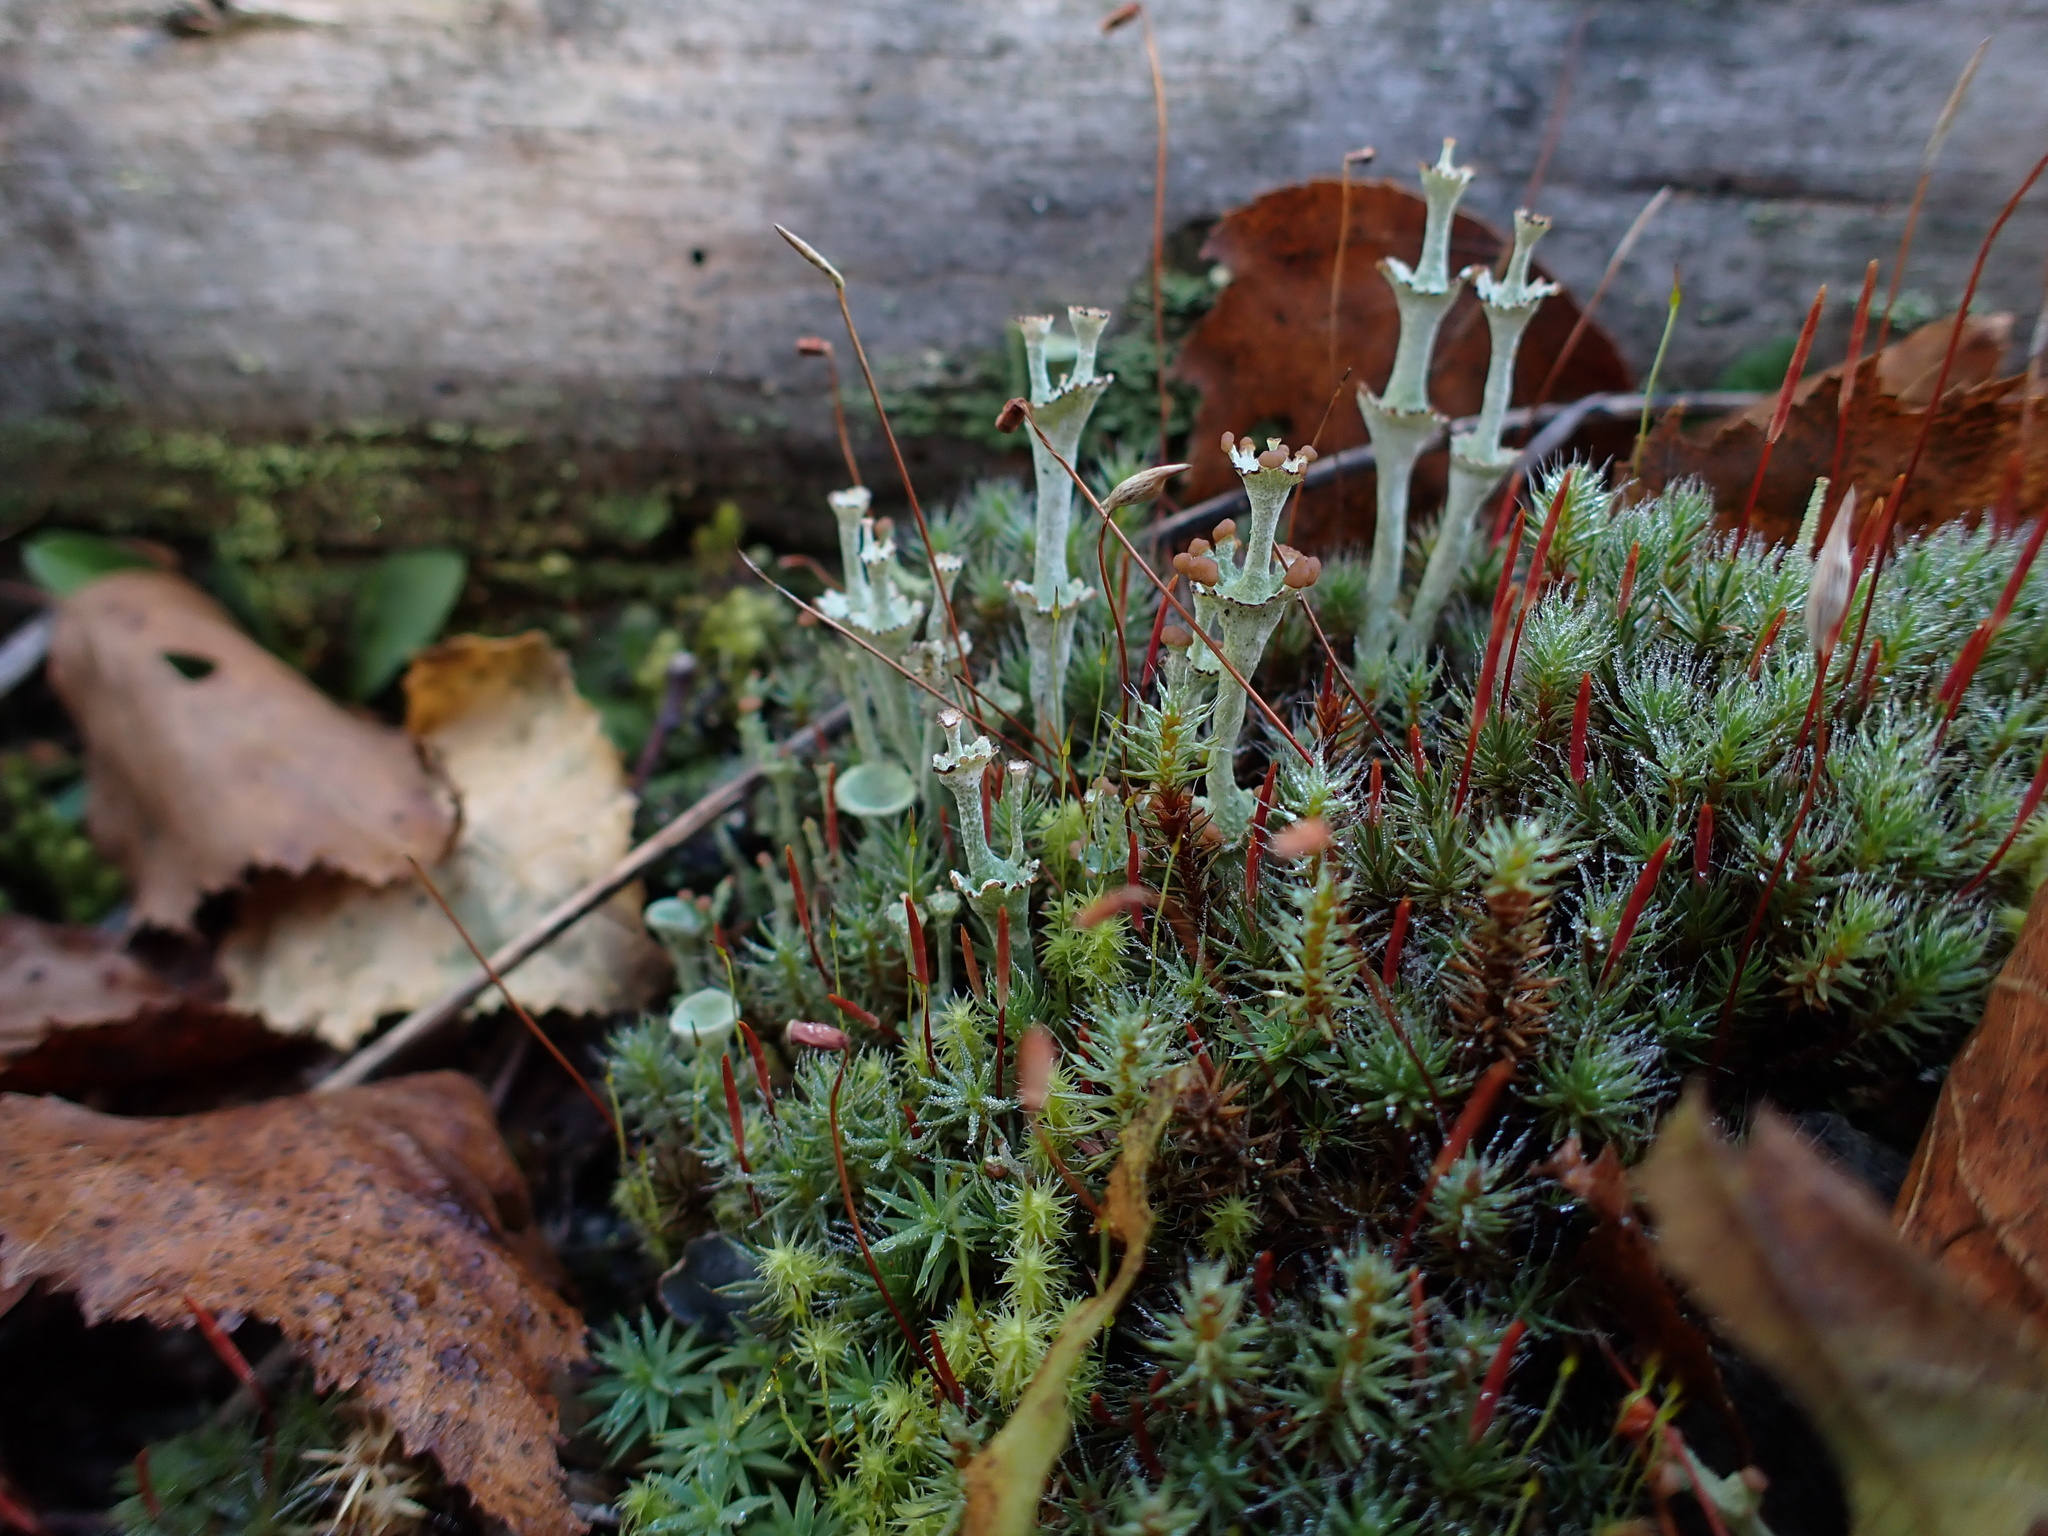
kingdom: Fungi
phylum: Ascomycota
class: Lecanoromycetes
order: Lecanorales
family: Cladoniaceae
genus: Cladonia
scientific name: Cladonia cervicornis
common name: Browned pixie-cup lichen
